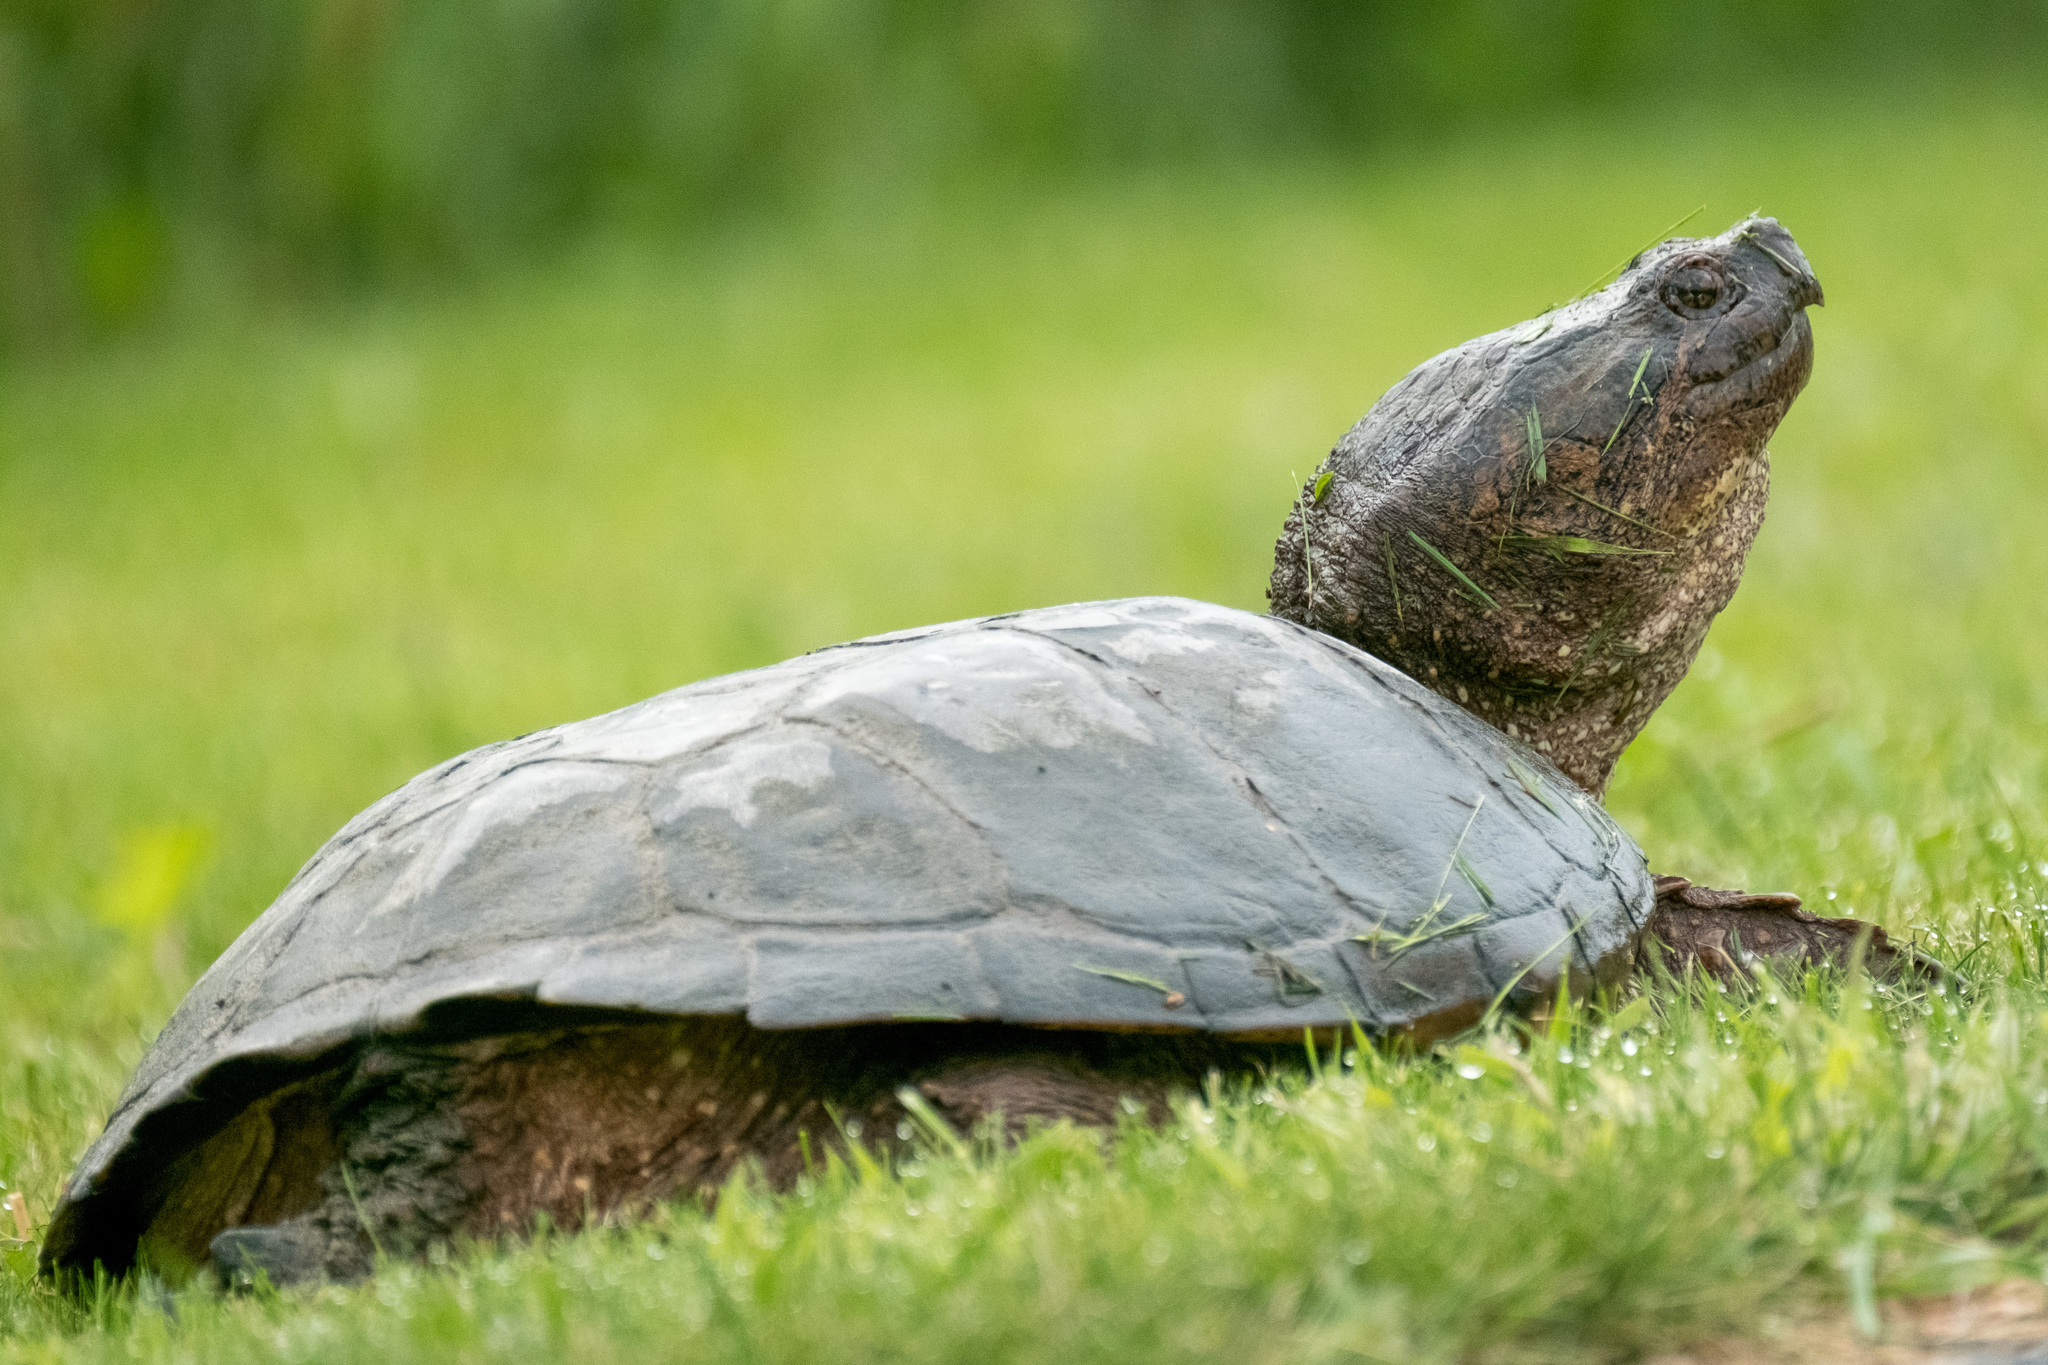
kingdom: Animalia
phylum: Chordata
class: Testudines
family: Chelydridae
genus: Chelydra
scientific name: Chelydra serpentina
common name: Common snapping turtle
